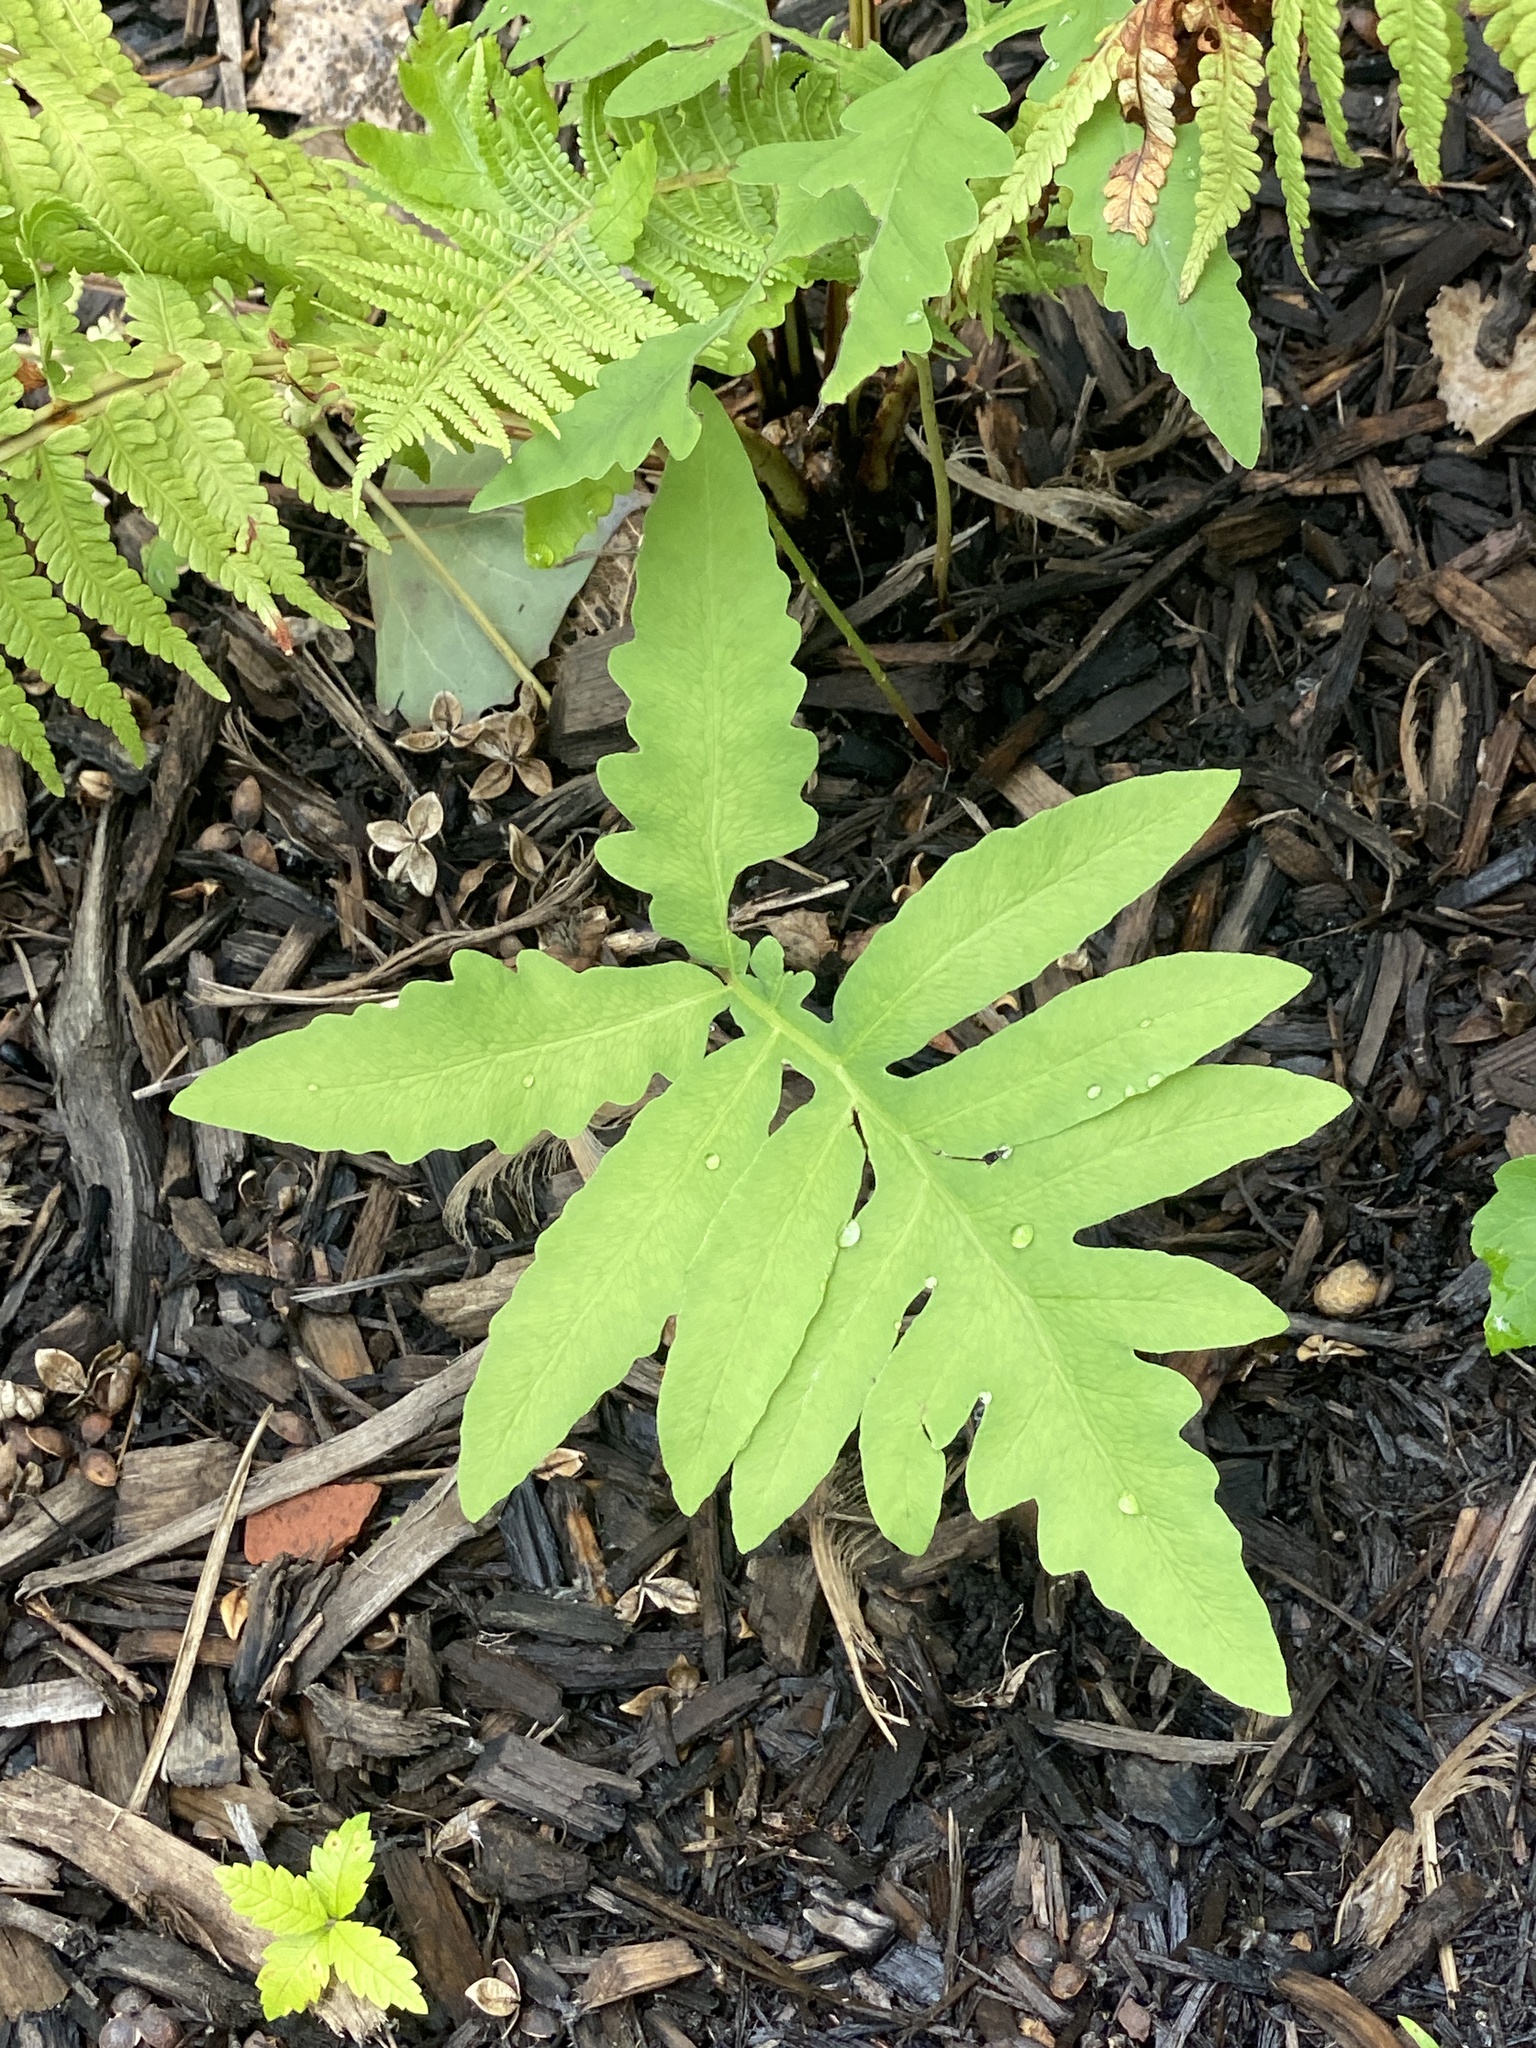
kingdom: Plantae
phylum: Tracheophyta
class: Polypodiopsida
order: Polypodiales
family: Onocleaceae
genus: Onoclea
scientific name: Onoclea sensibilis
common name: Sensitive fern
